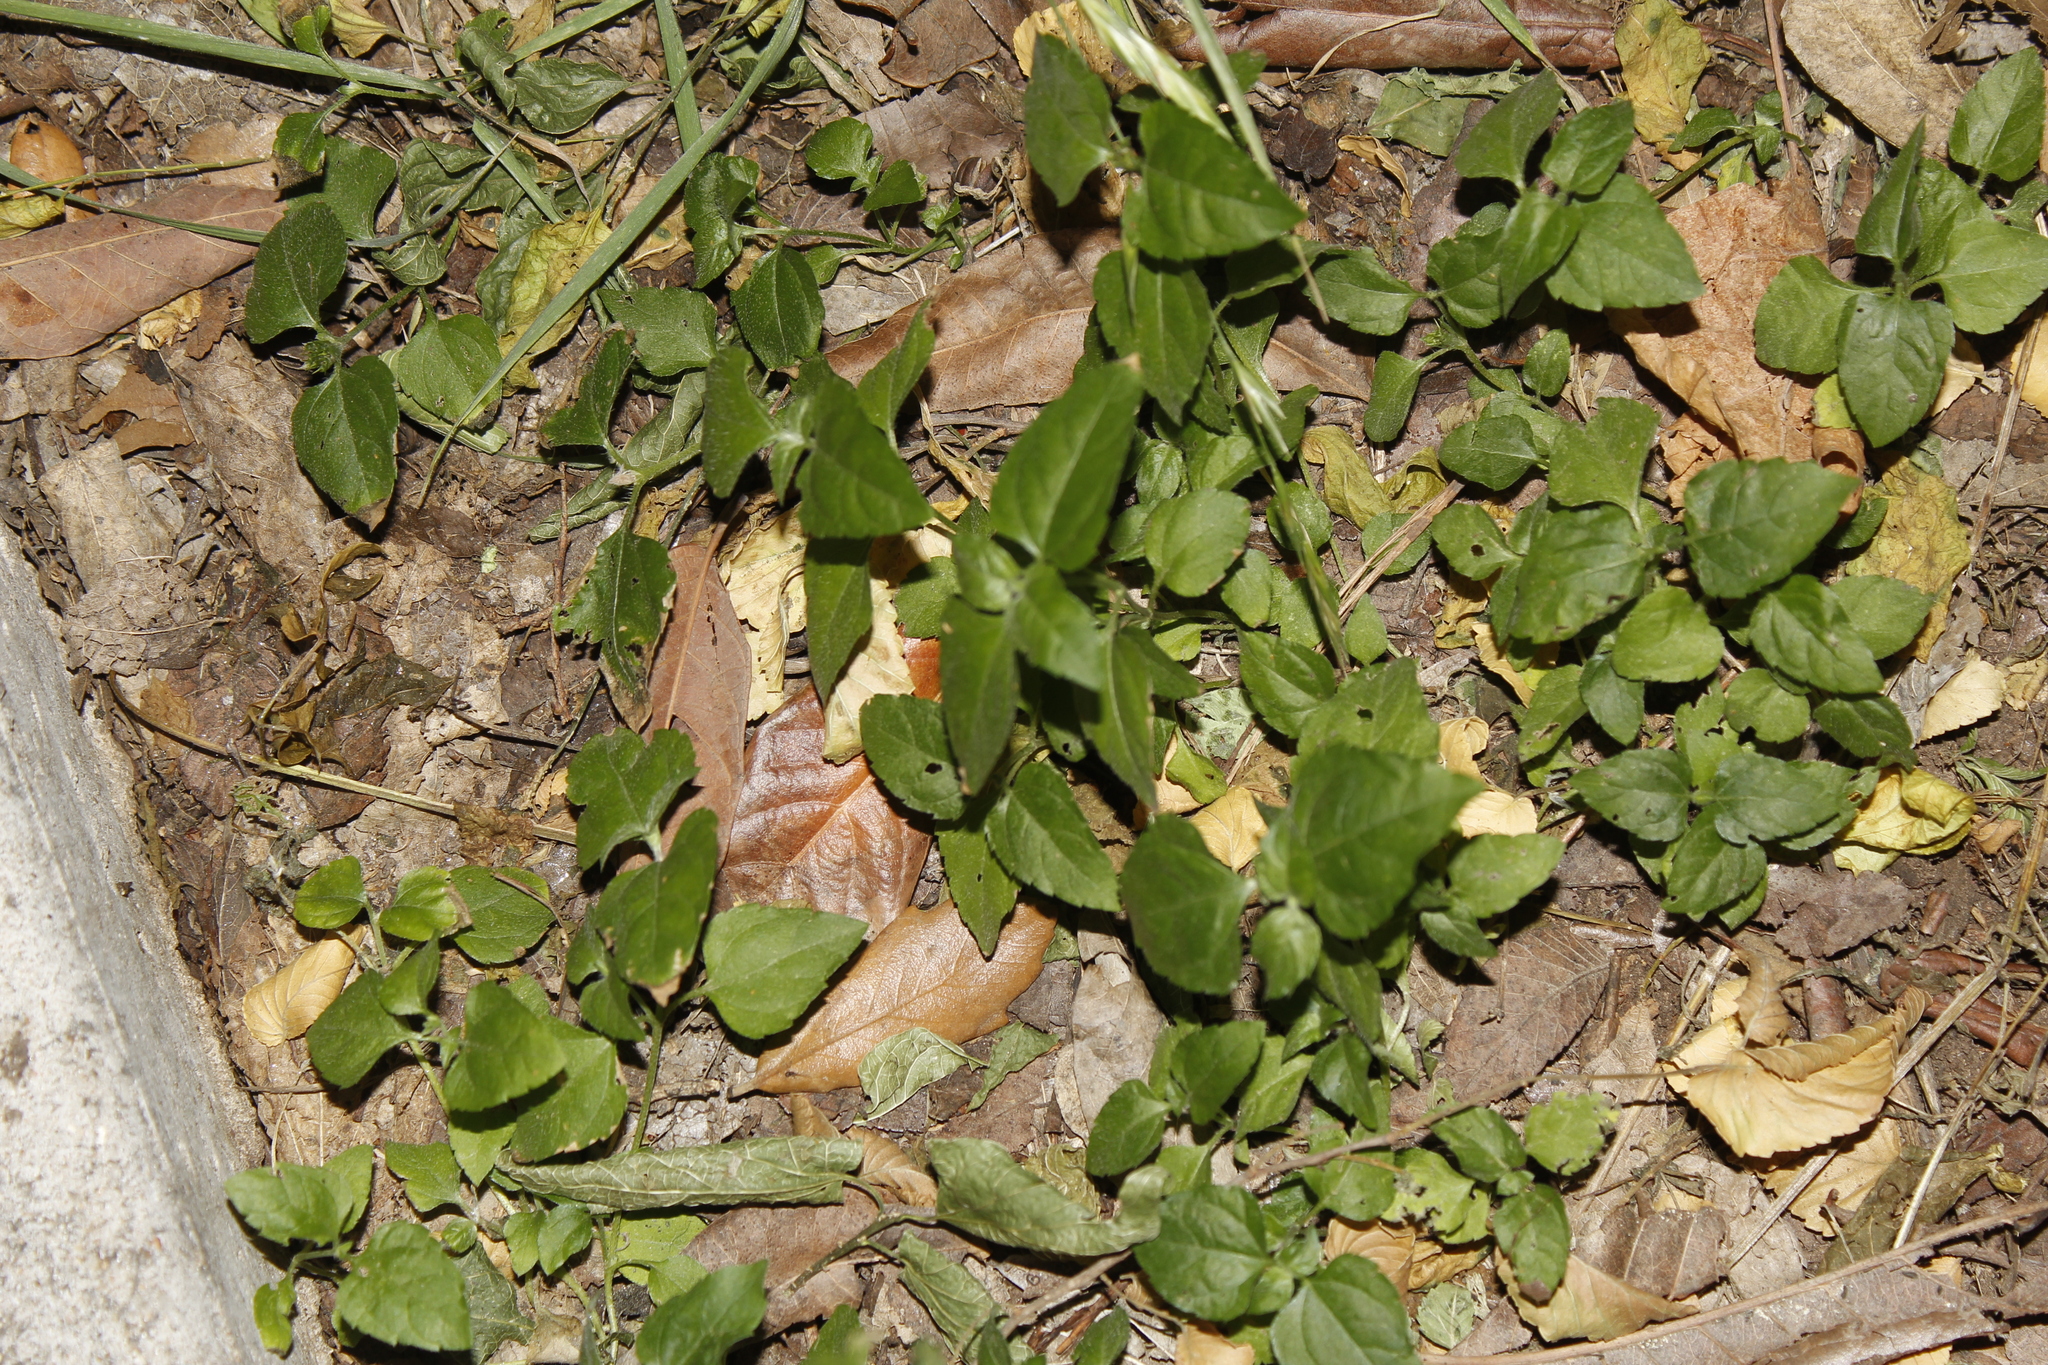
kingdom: Plantae
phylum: Tracheophyta
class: Magnoliopsida
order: Asterales
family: Asteraceae
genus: Calyptocarpus
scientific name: Calyptocarpus vialis
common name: Straggler daisy
